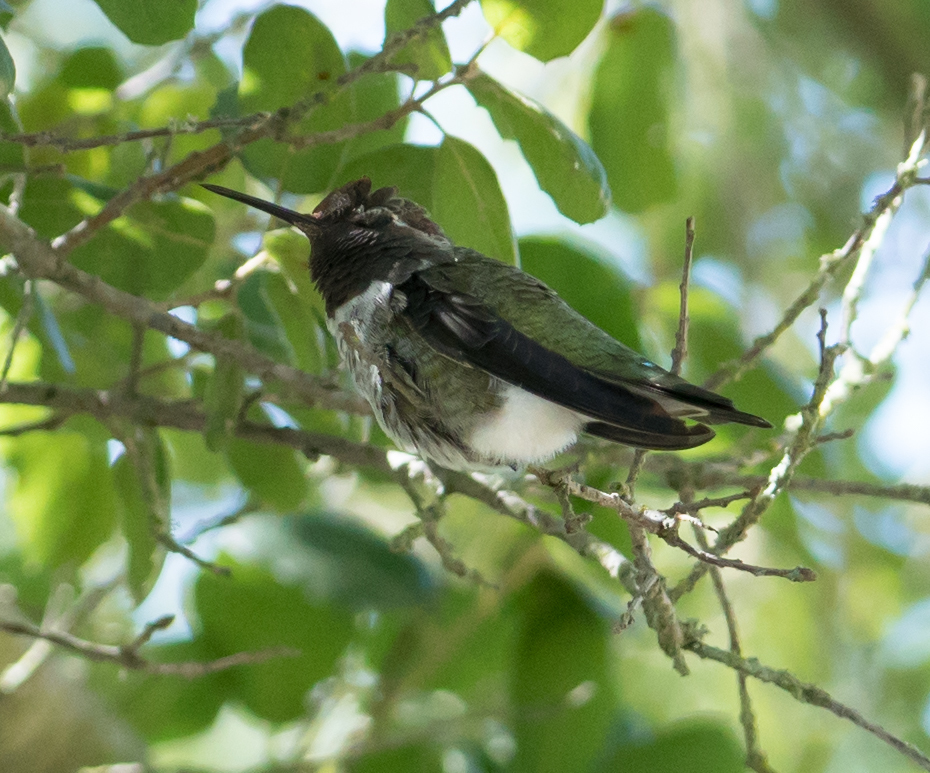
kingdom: Animalia
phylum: Chordata
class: Aves
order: Apodiformes
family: Trochilidae
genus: Calypte
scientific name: Calypte anna
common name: Anna's hummingbird
